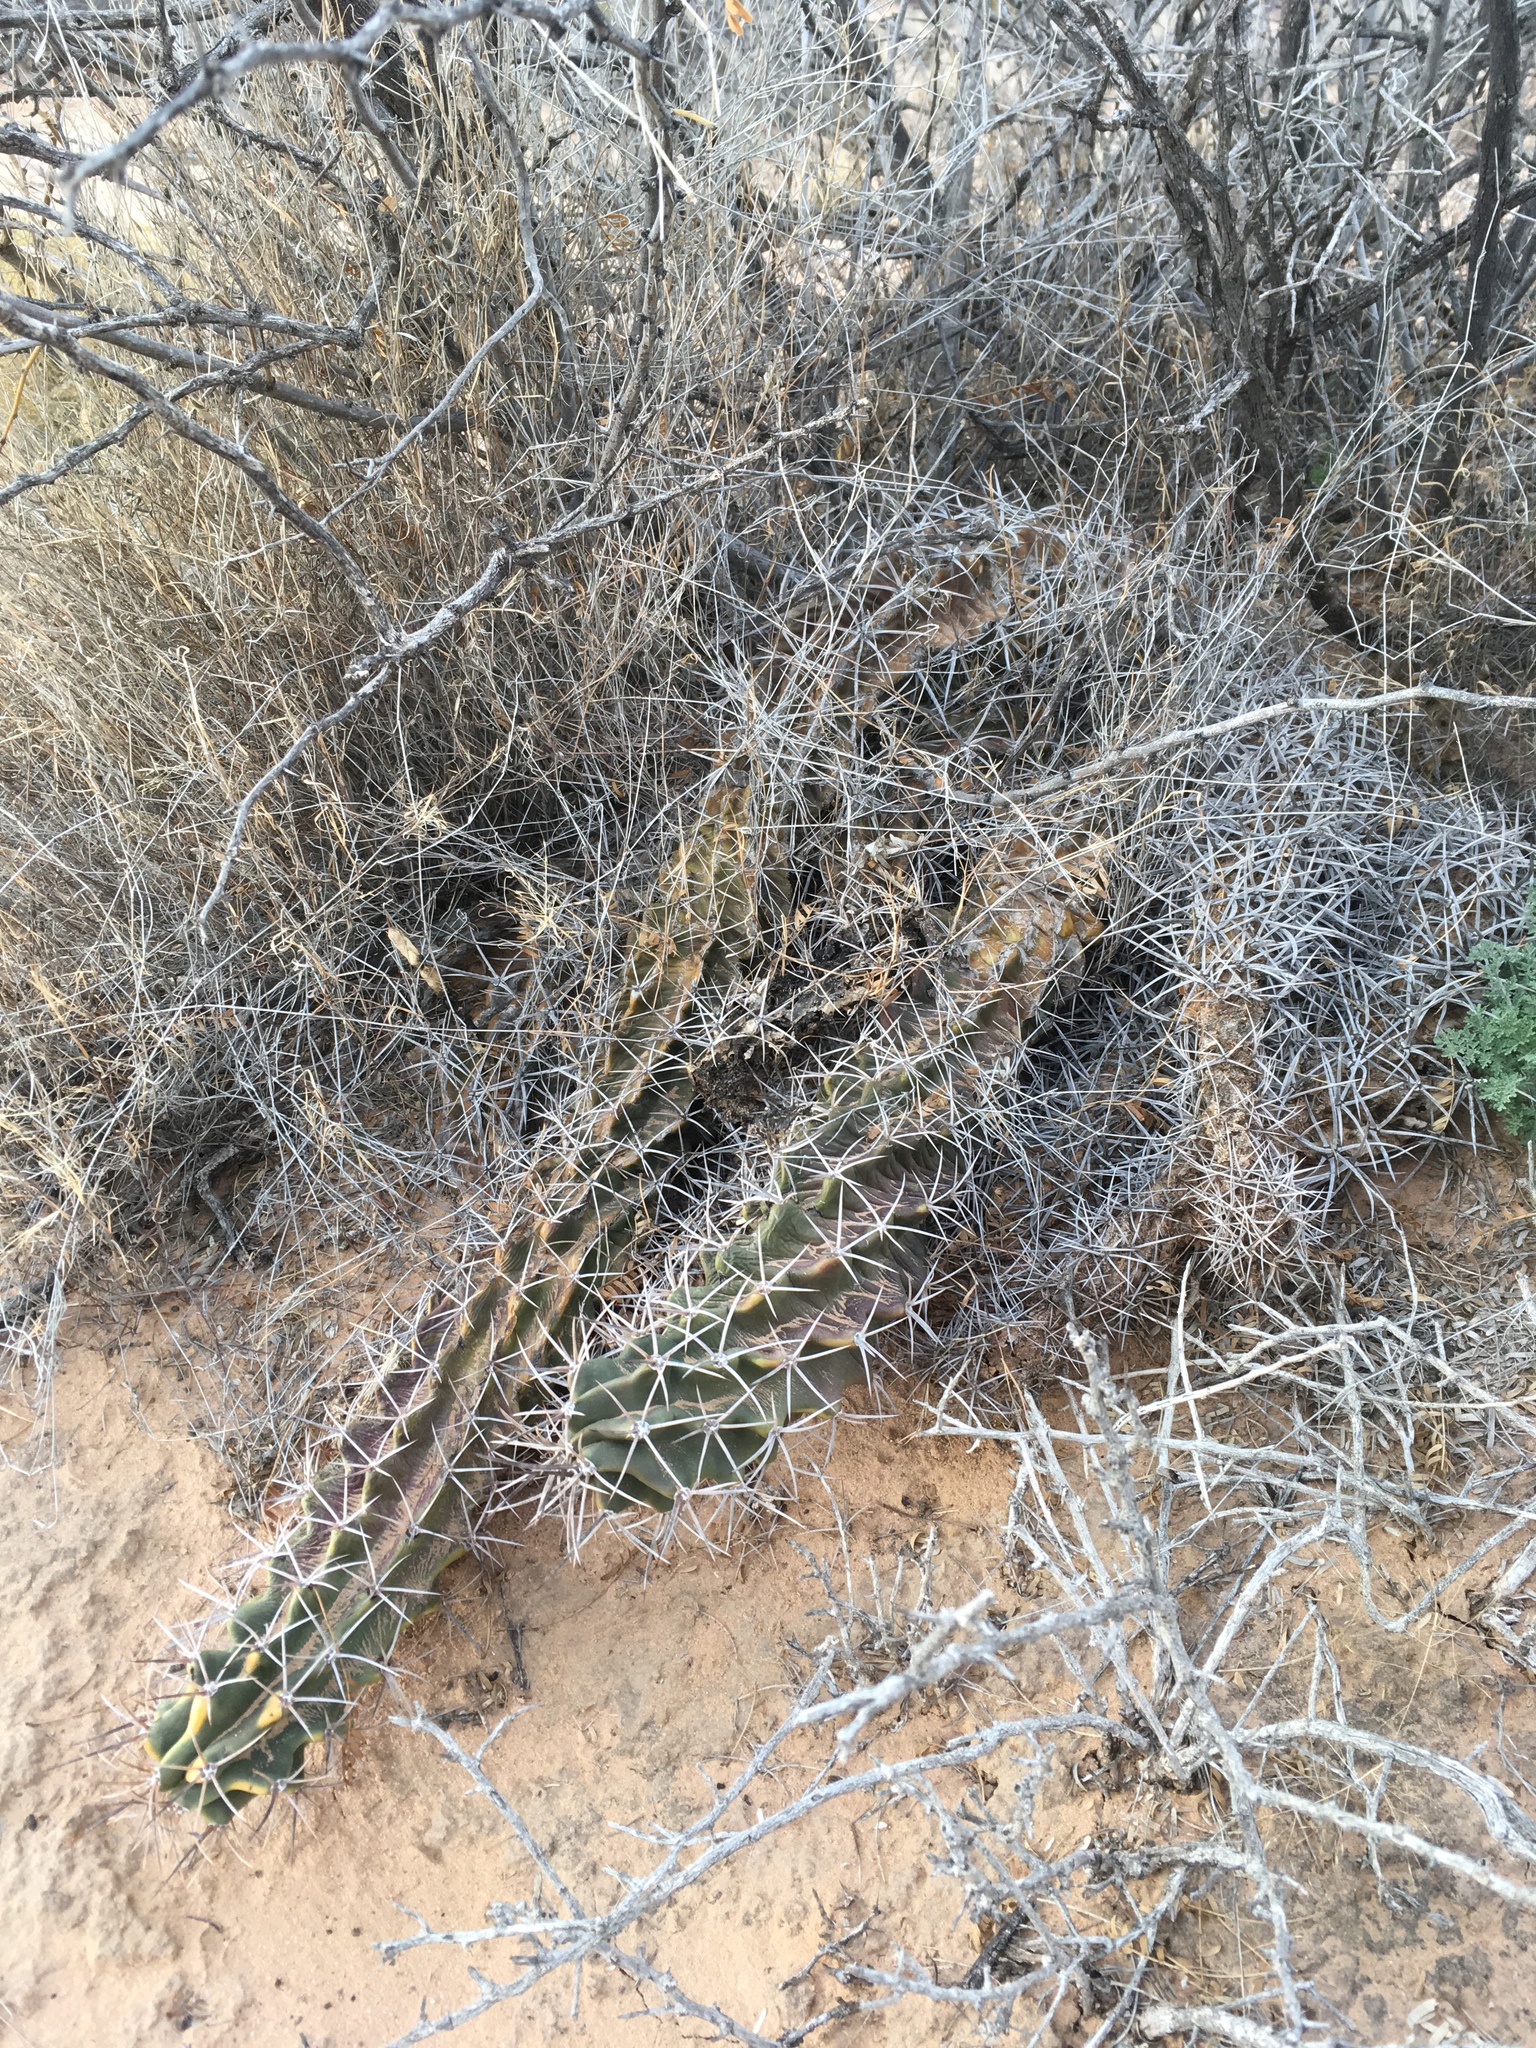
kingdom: Plantae
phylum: Tracheophyta
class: Magnoliopsida
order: Caryophyllales
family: Cactaceae
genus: Echinocereus
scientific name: Echinocereus triglochidiatus
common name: Claretcup hedgehog
